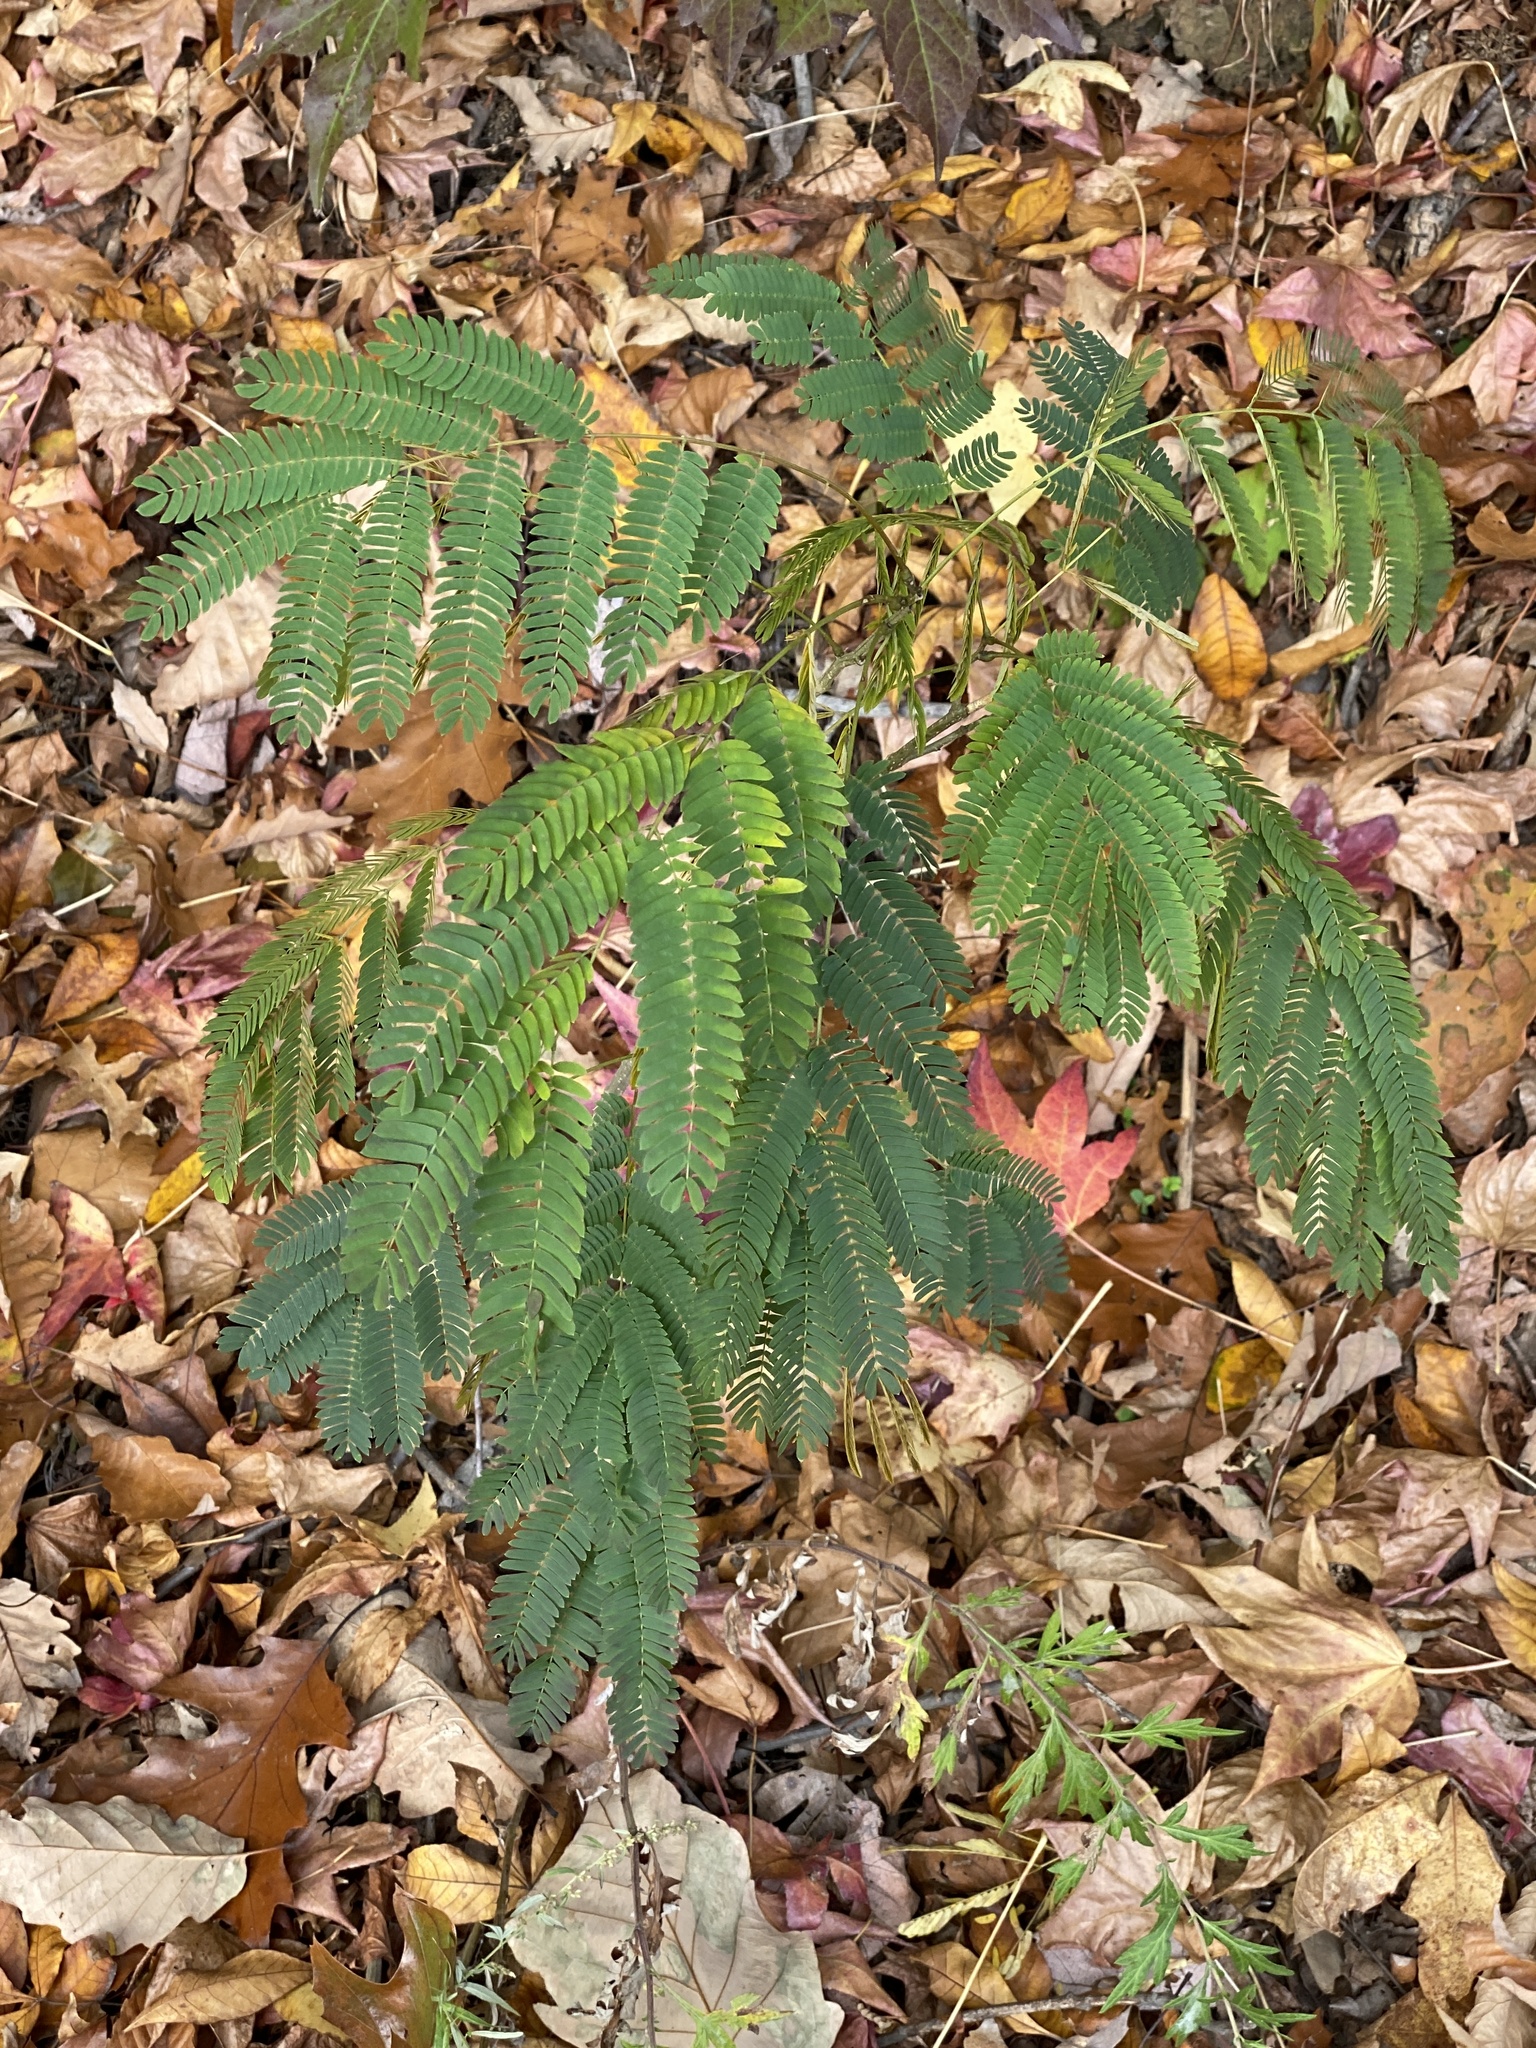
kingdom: Plantae
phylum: Tracheophyta
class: Magnoliopsida
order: Fabales
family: Fabaceae
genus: Albizia
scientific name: Albizia julibrissin
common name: Silktree
